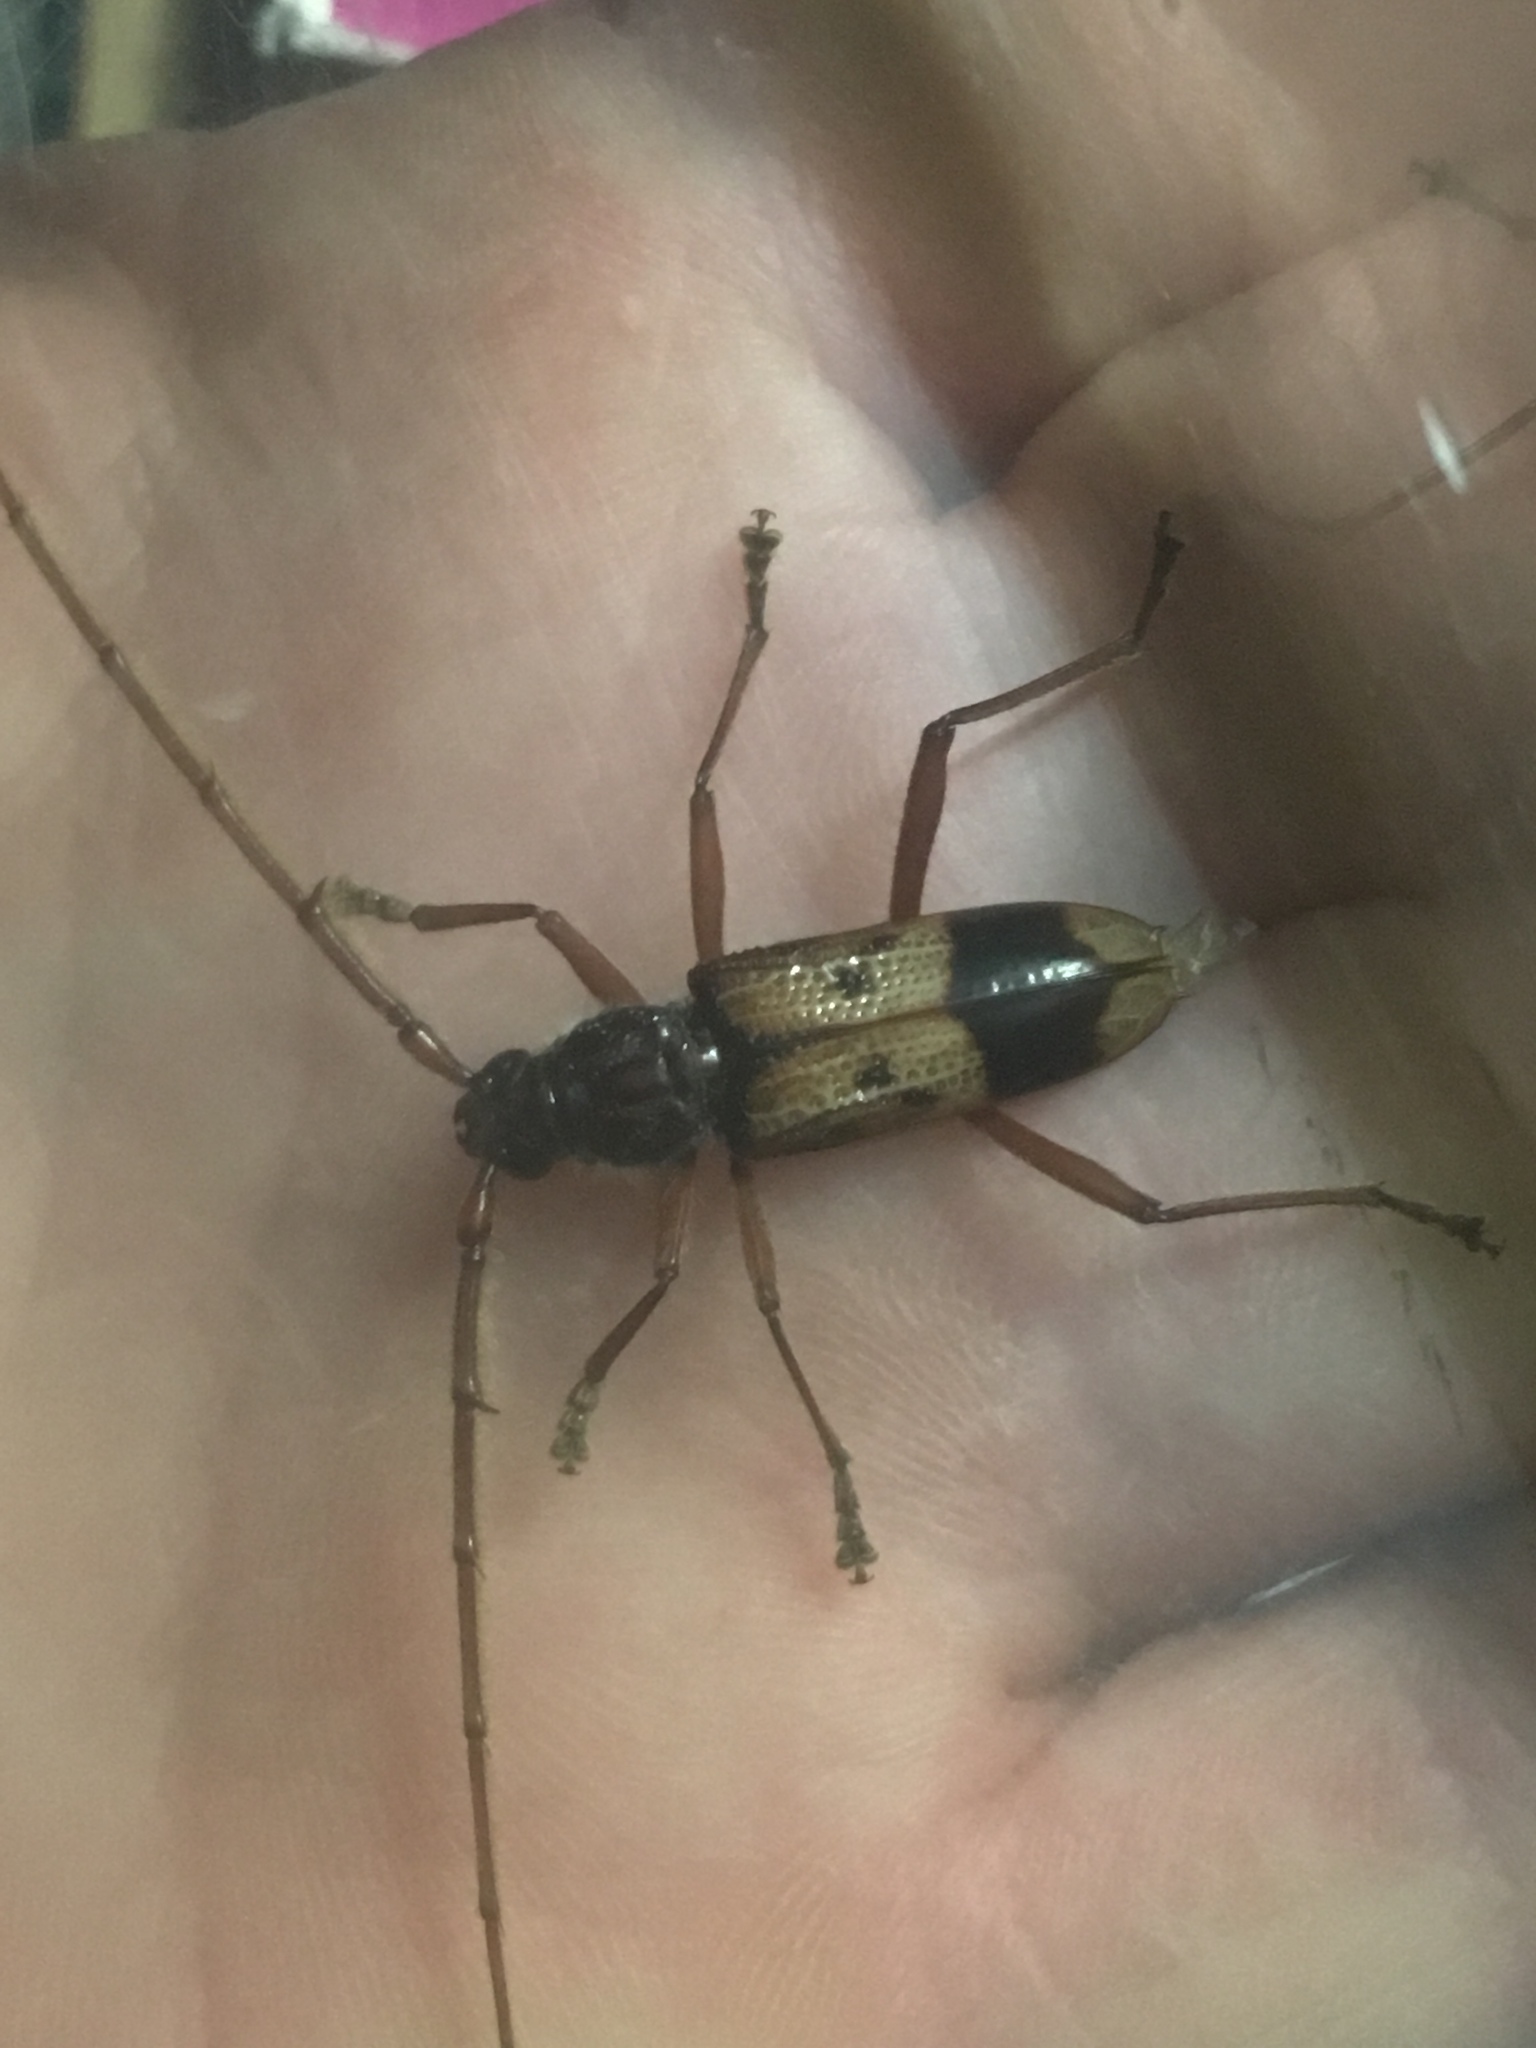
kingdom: Animalia
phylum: Arthropoda
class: Insecta
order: Coleoptera
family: Cerambycidae
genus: Phoracantha
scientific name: Phoracantha recurva
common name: Eucalyptus longhorned borer
